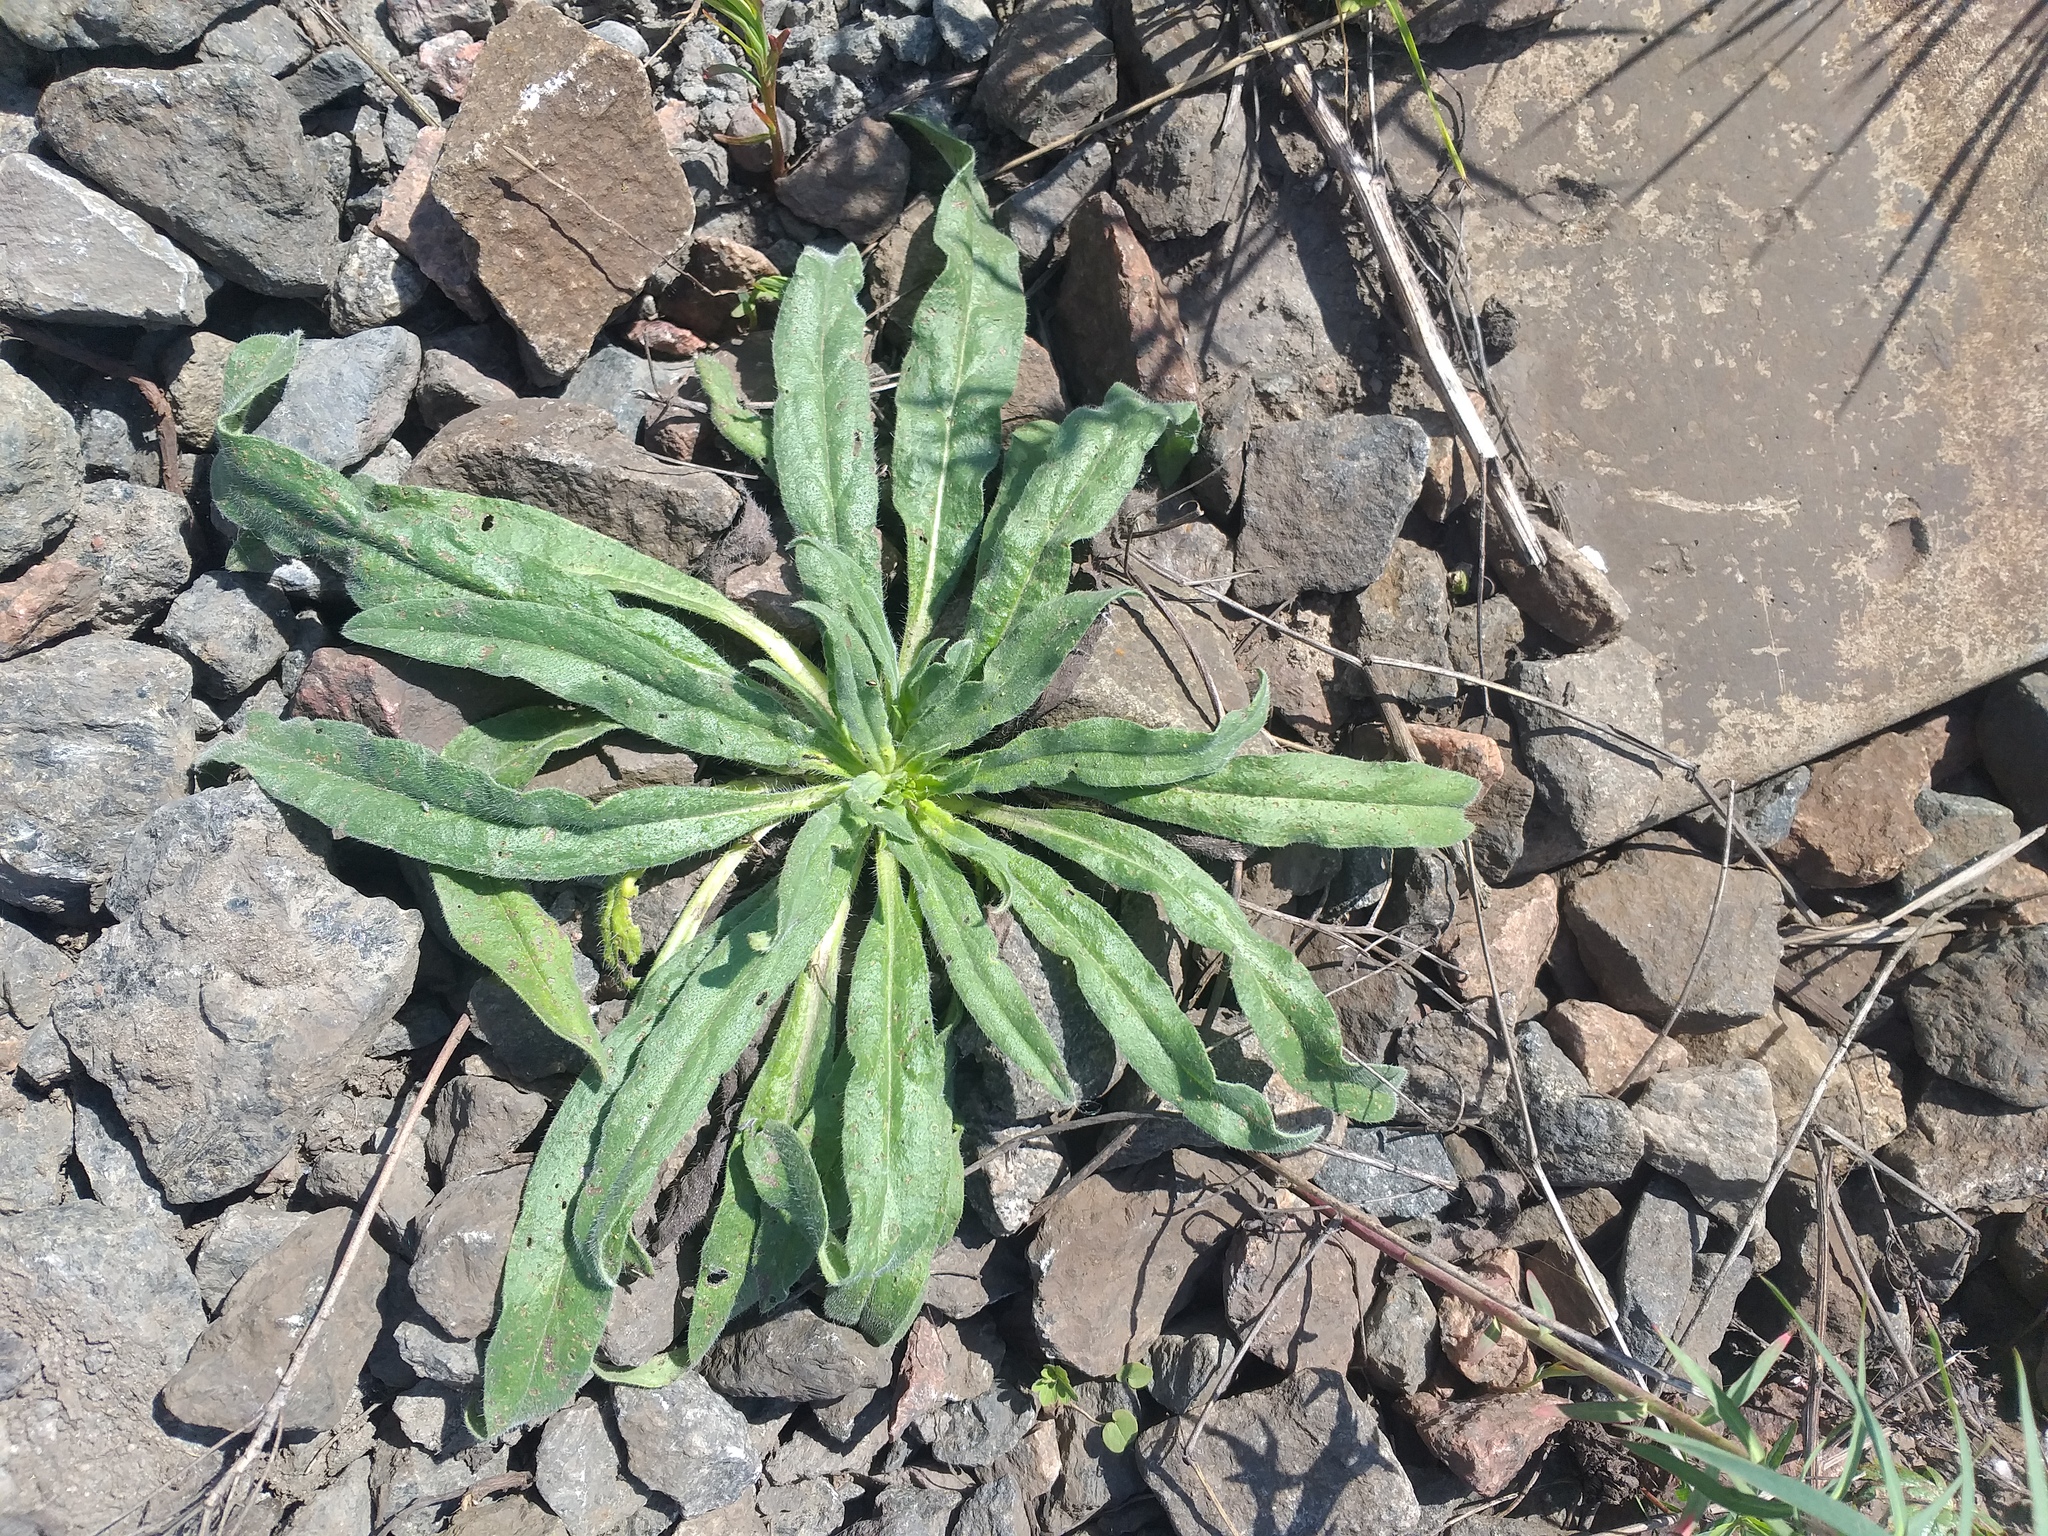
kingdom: Plantae
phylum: Tracheophyta
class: Magnoliopsida
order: Boraginales
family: Boraginaceae
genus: Echium
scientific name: Echium vulgare
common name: Common viper's bugloss
